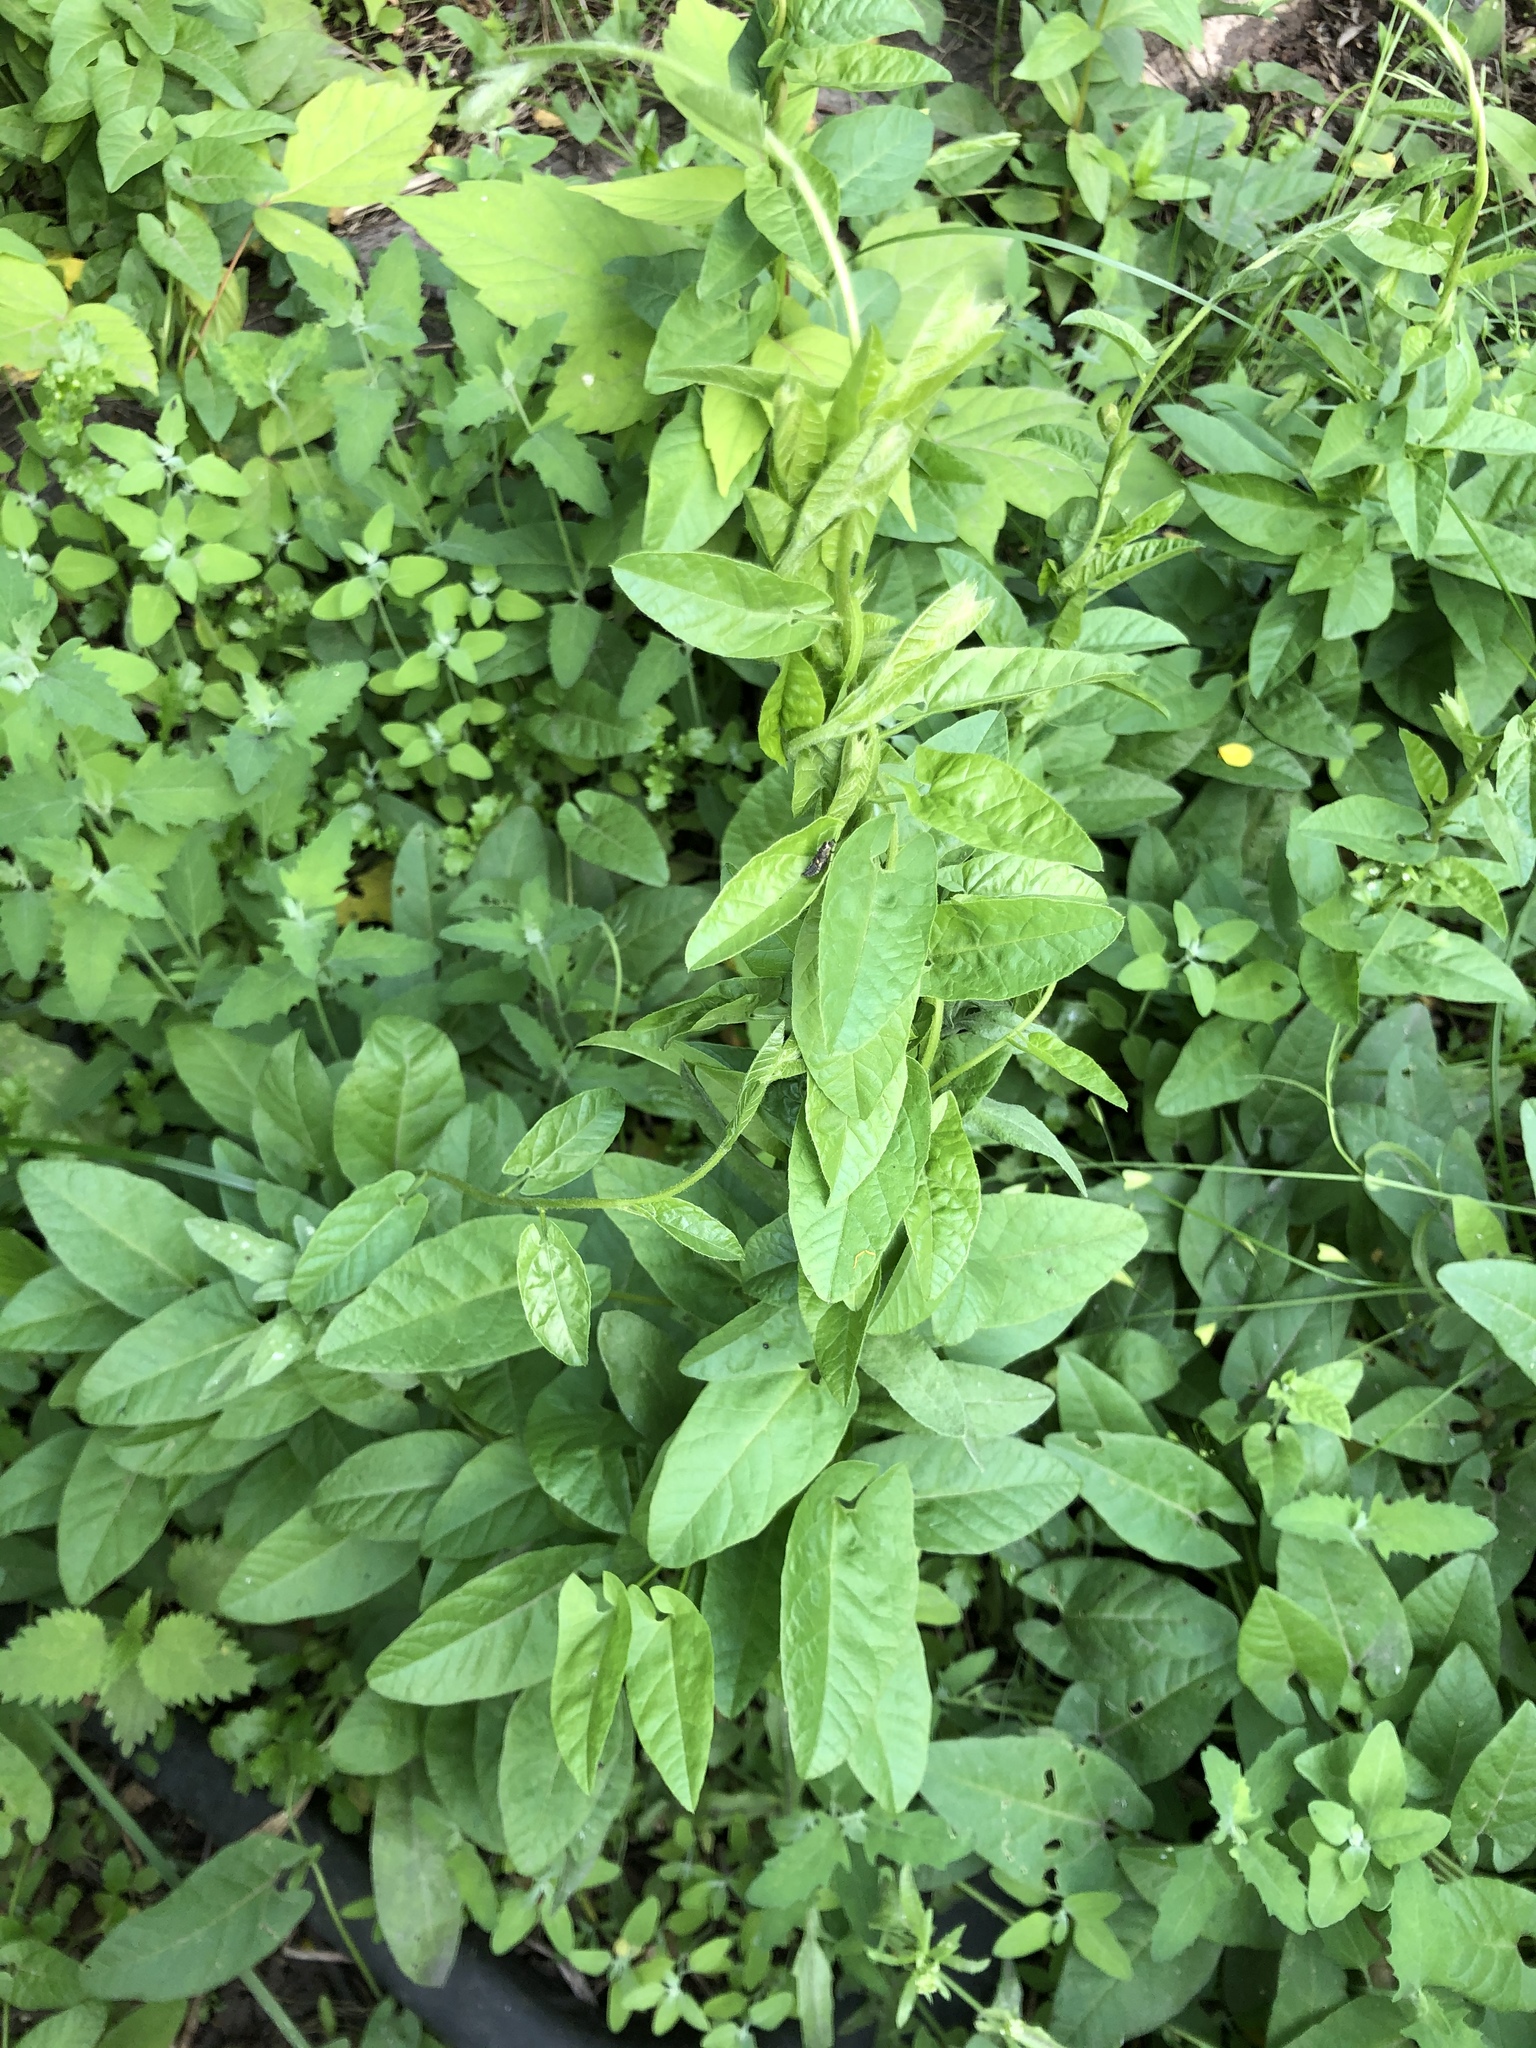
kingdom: Plantae
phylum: Tracheophyta
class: Magnoliopsida
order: Solanales
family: Convolvulaceae
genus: Convolvulus
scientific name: Convolvulus arvensis
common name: Field bindweed
